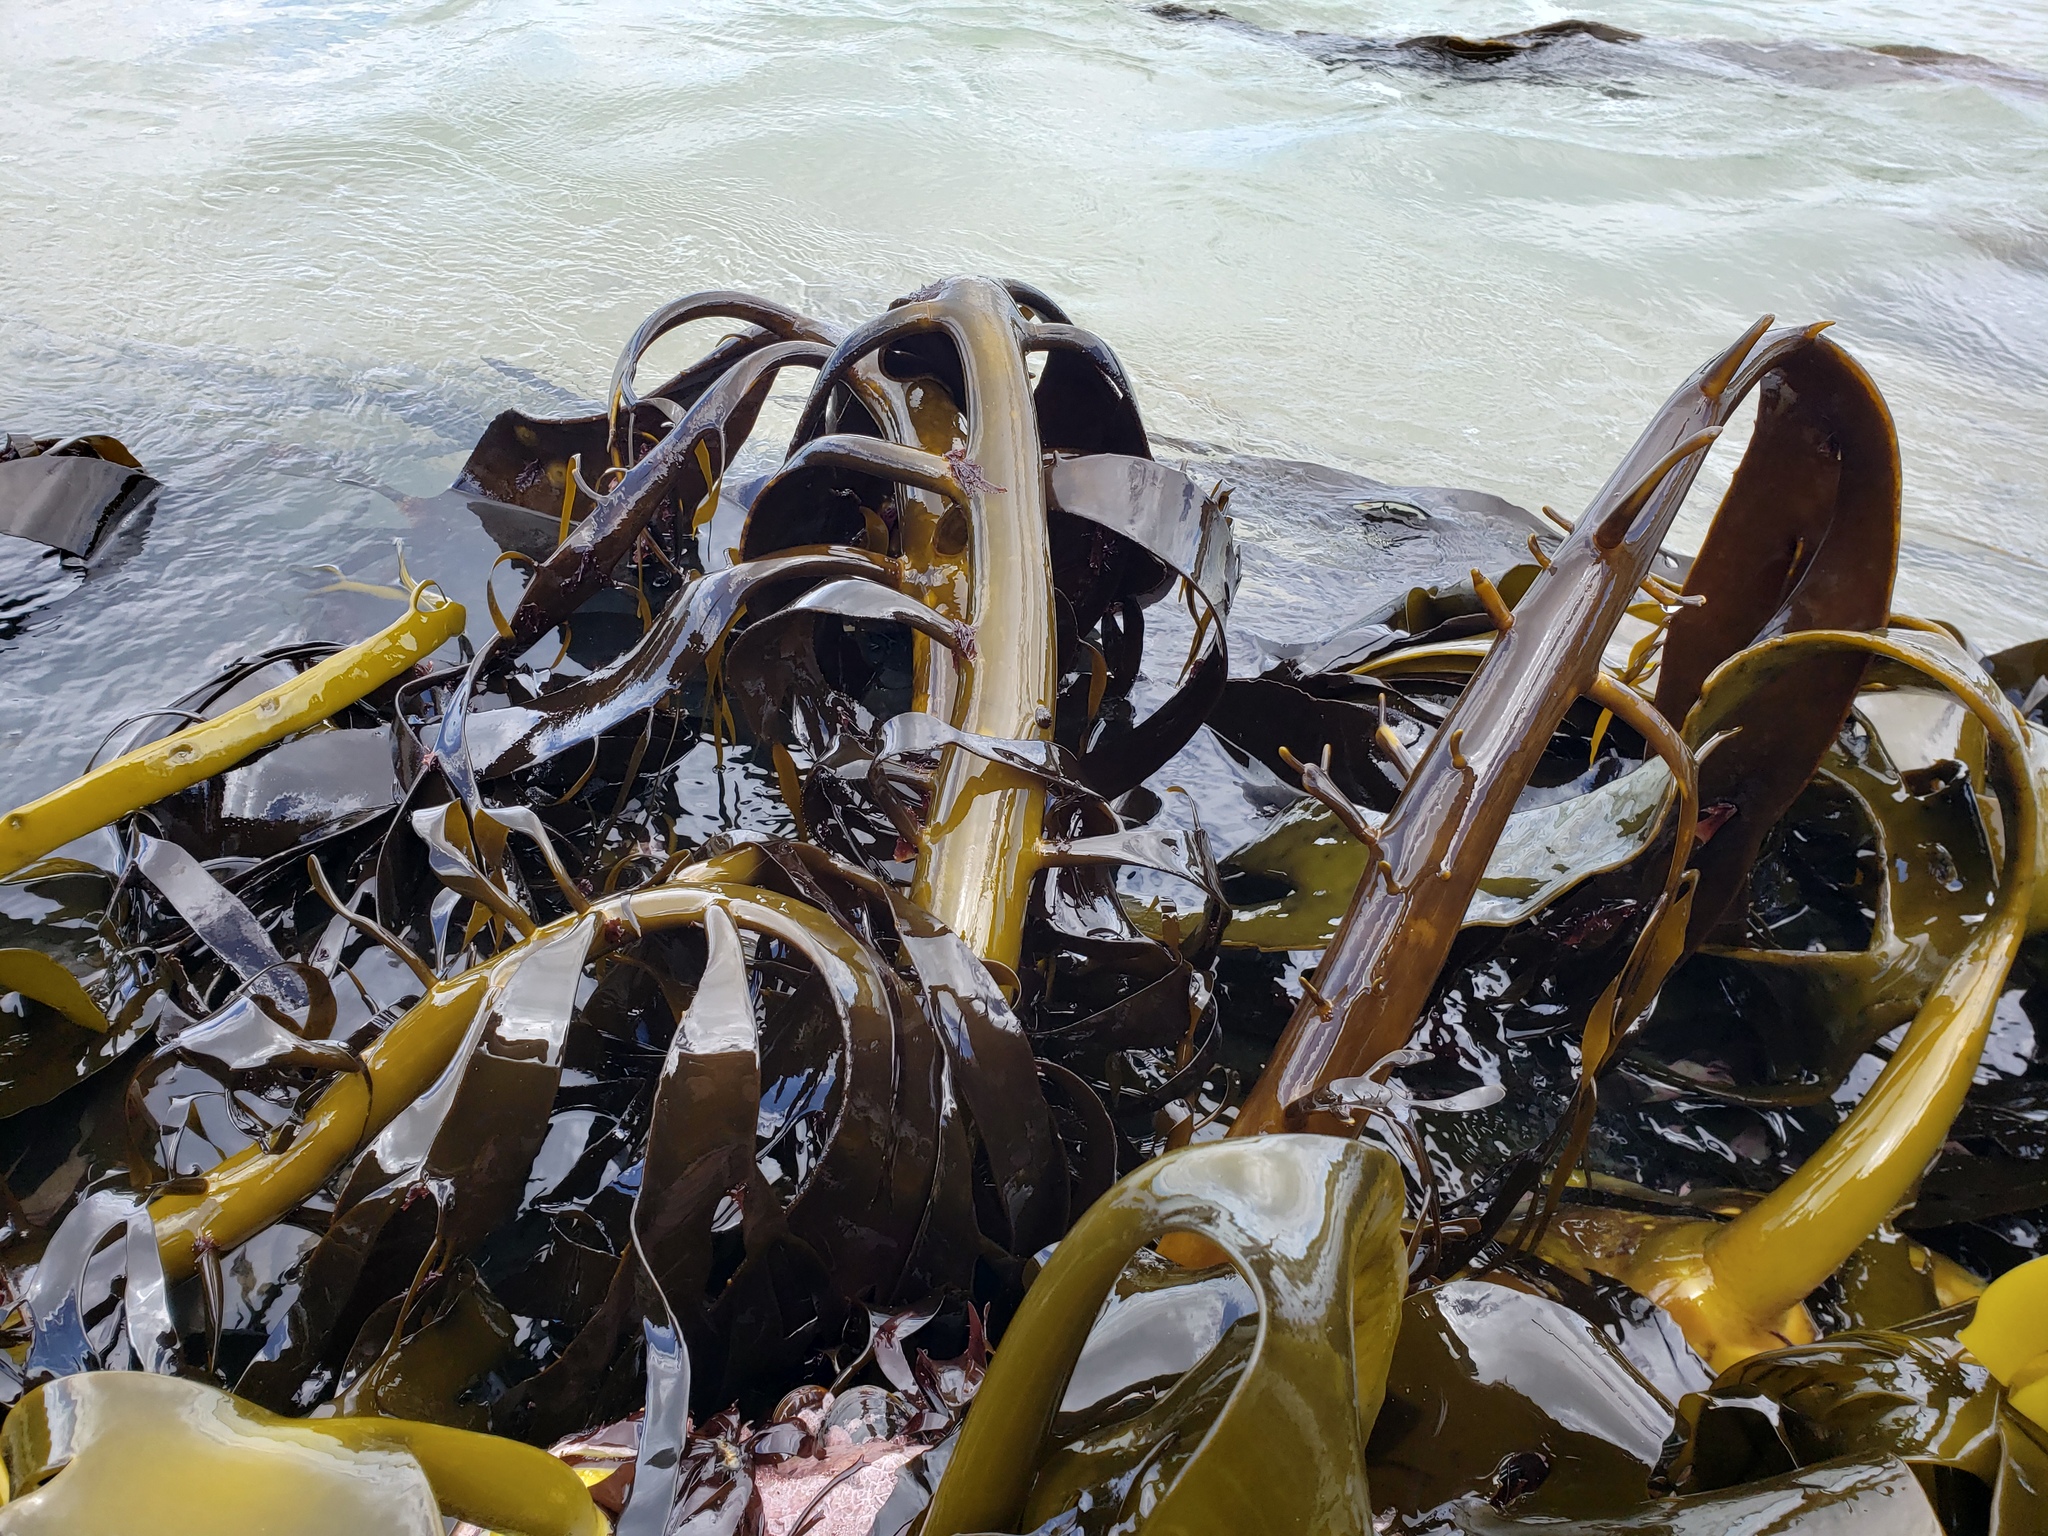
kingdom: Chromista
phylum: Ochrophyta
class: Phaeophyceae
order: Fucales
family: Durvillaeaceae
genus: Durvillaea
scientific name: Durvillaea willana
